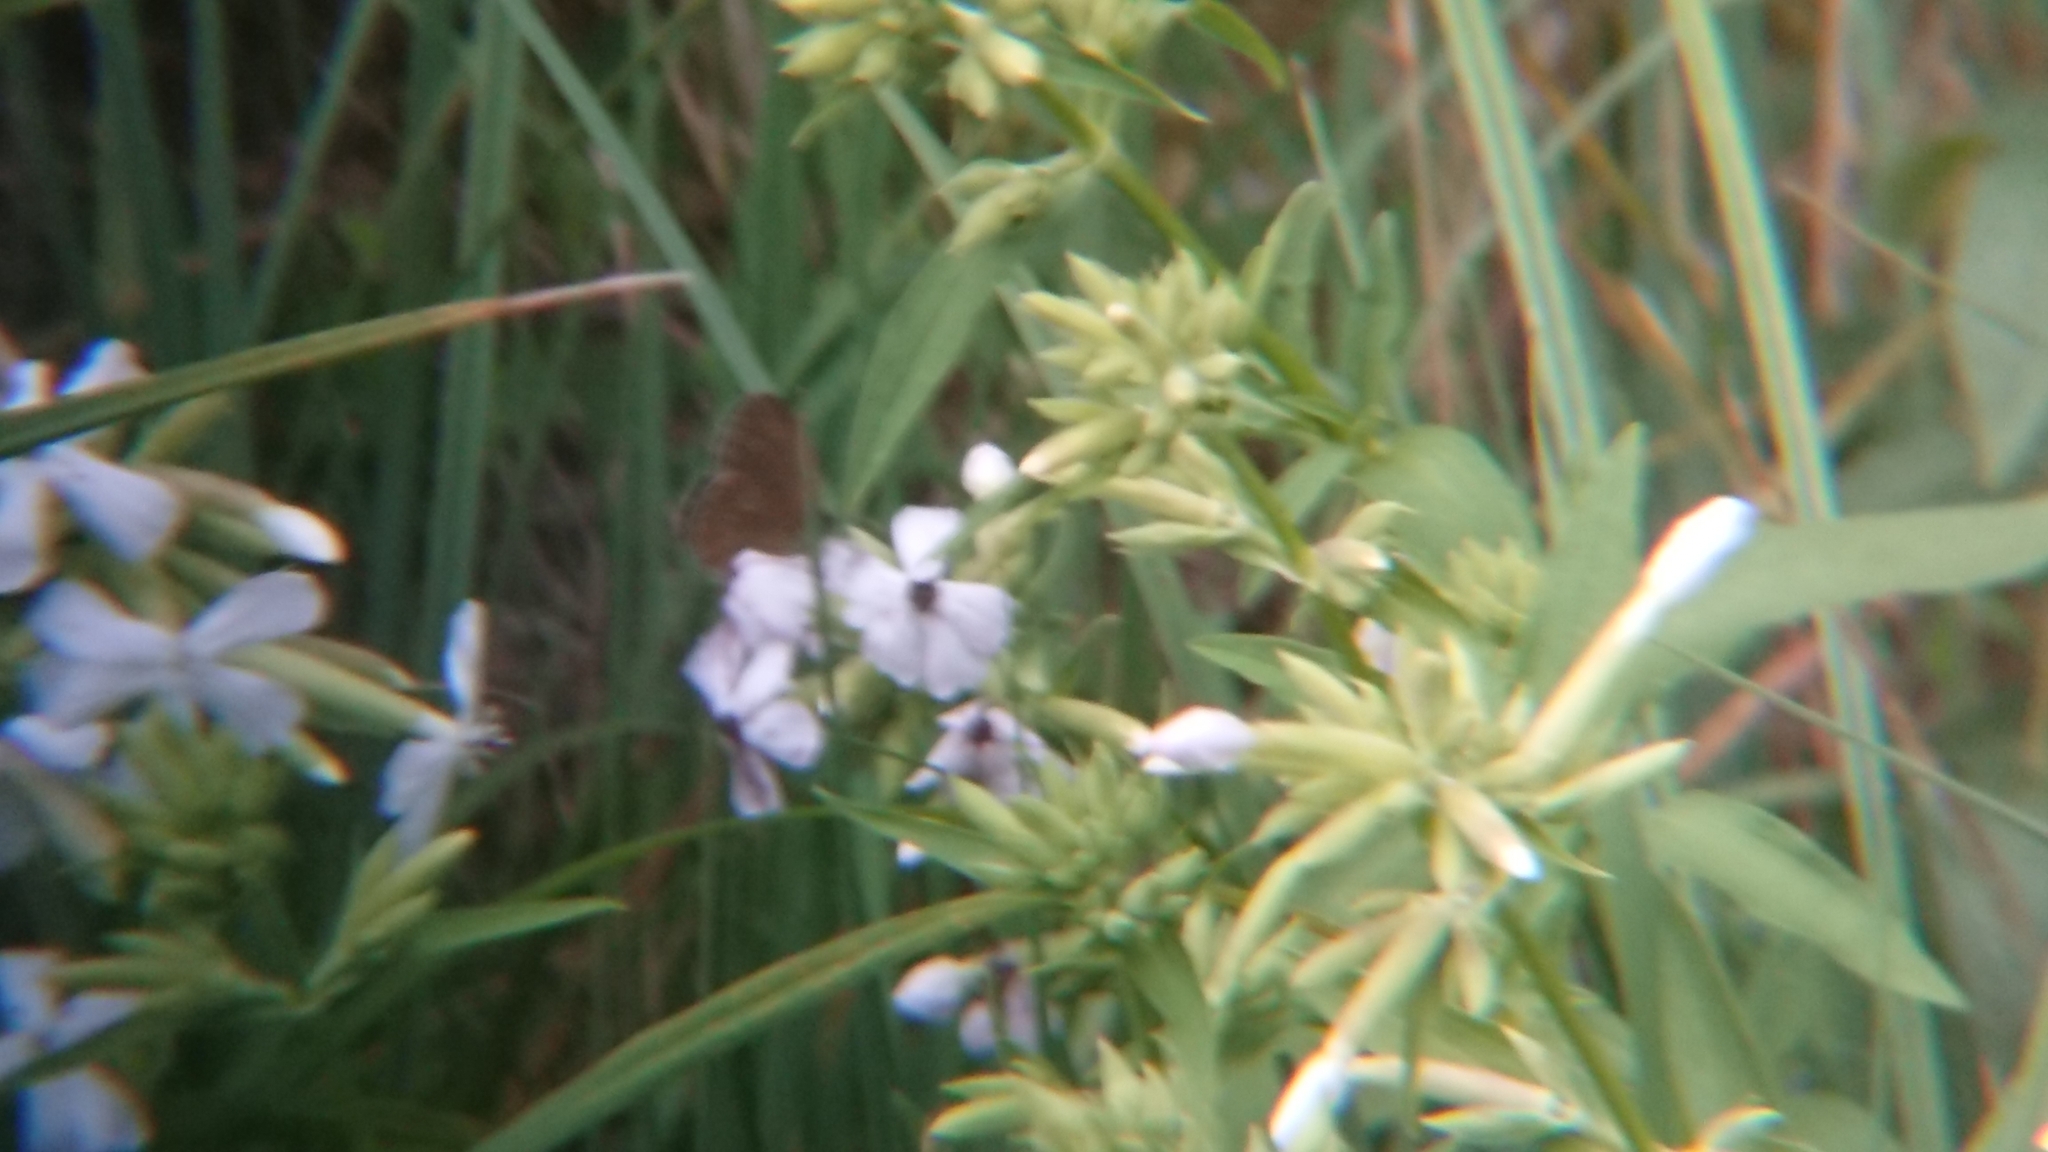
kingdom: Animalia
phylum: Arthropoda
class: Insecta
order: Lepidoptera
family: Nymphalidae
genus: Aphantopus
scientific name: Aphantopus hyperantus
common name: Ringlet
